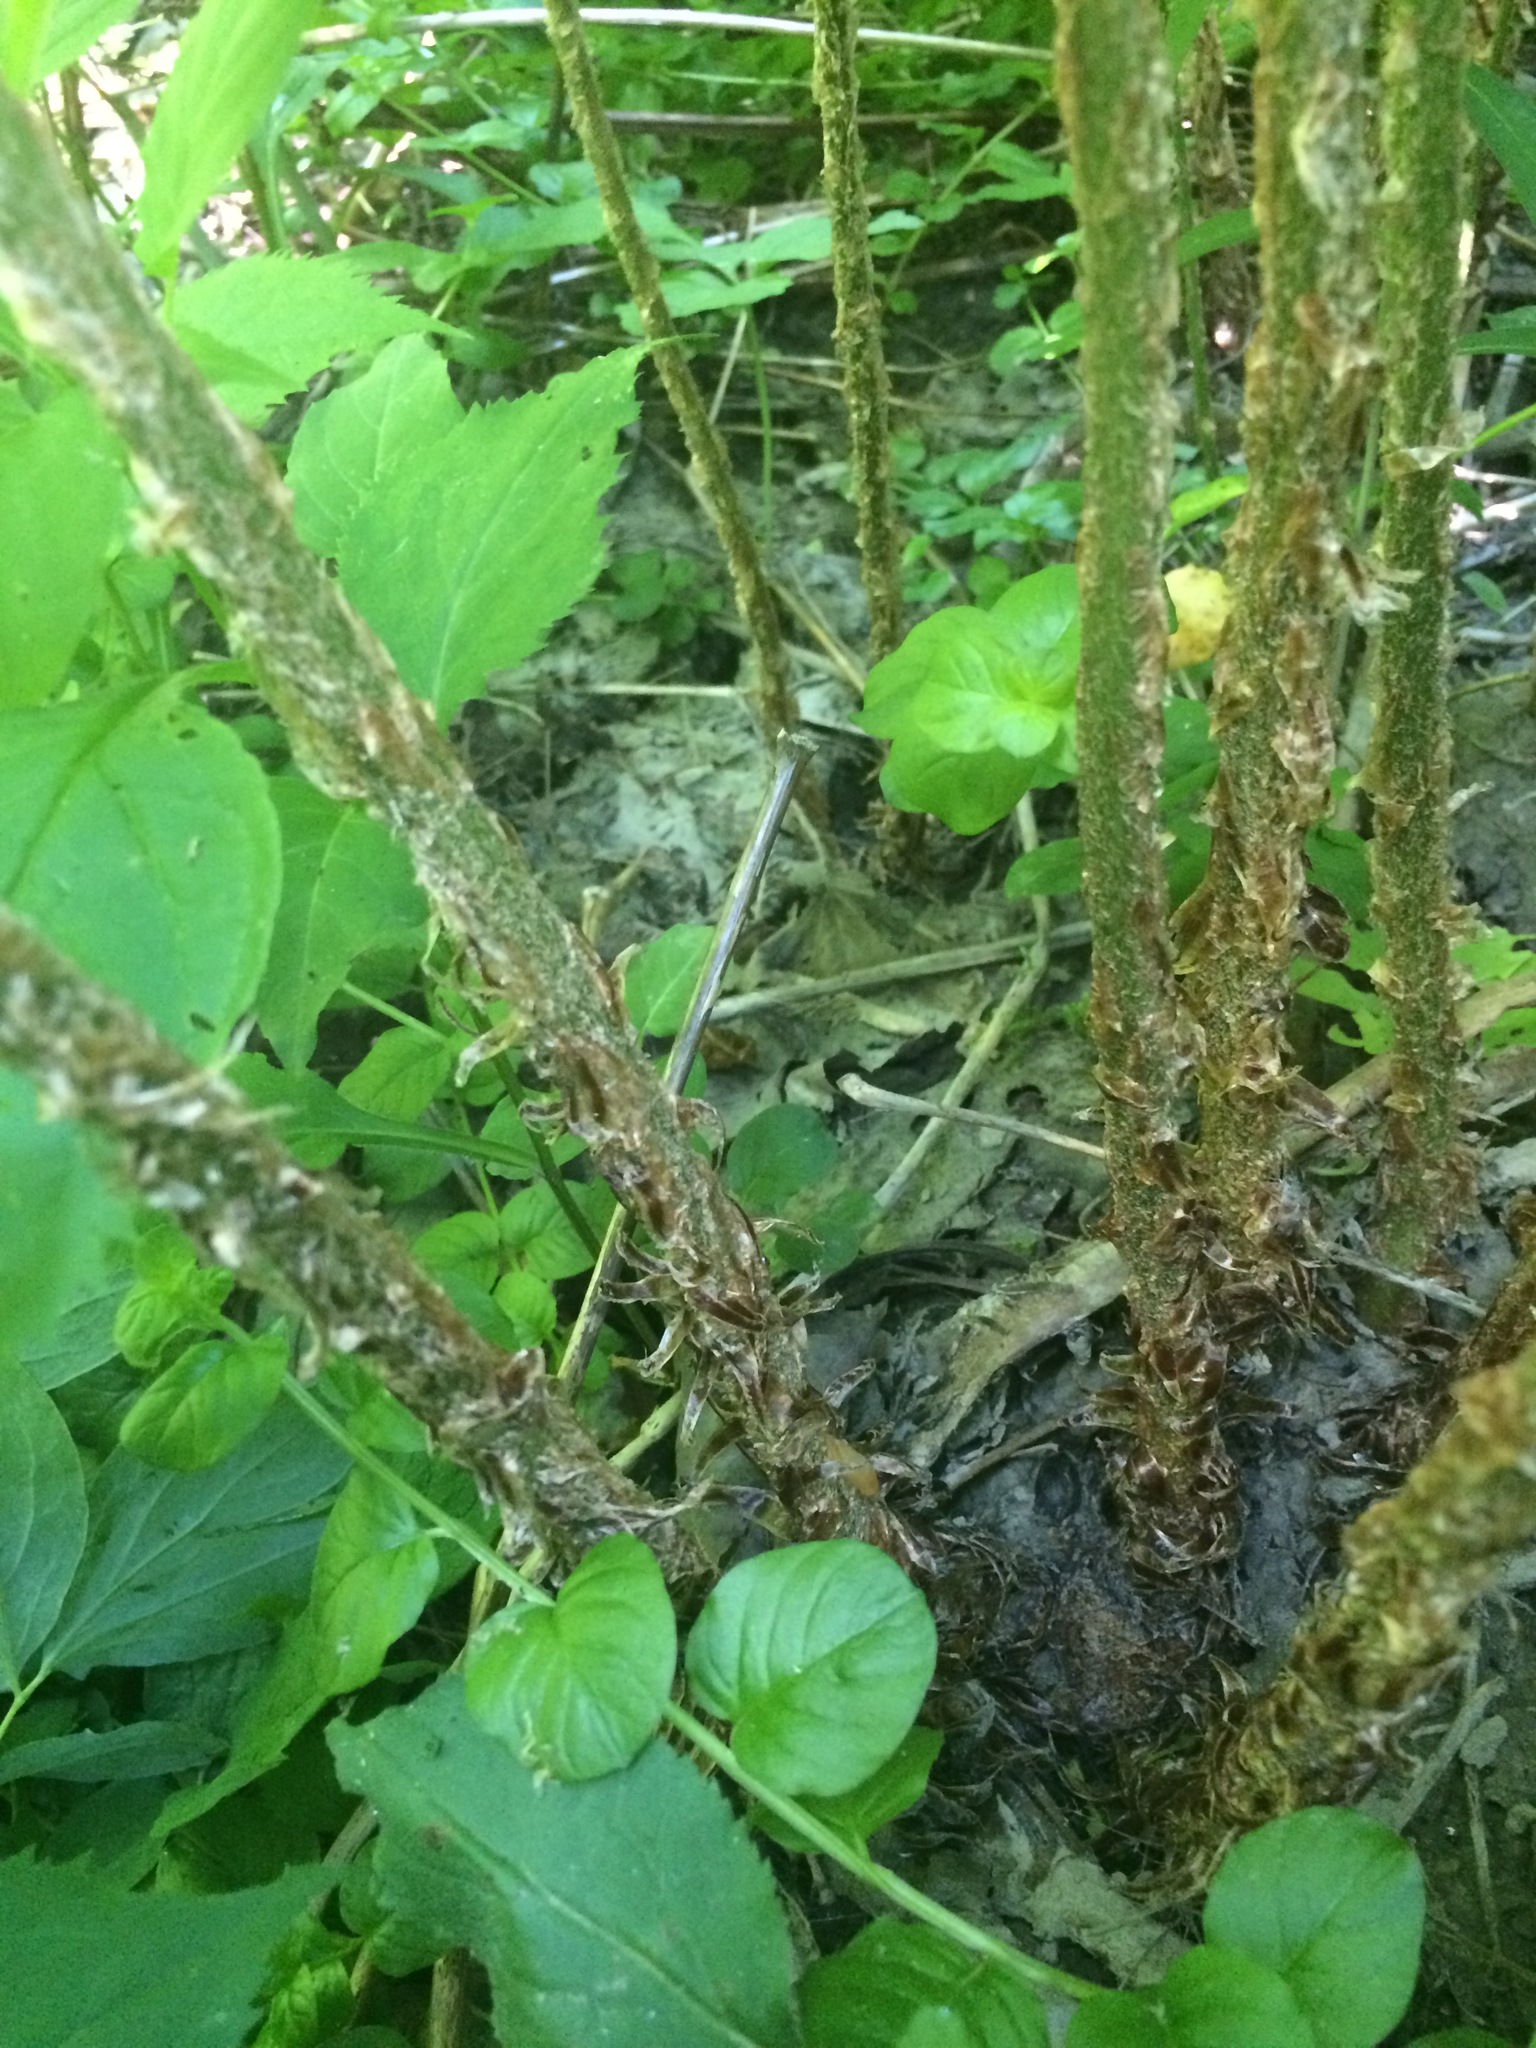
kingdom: Plantae
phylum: Tracheophyta
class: Polypodiopsida
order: Polypodiales
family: Dryopteridaceae
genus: Dryopteris
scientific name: Dryopteris goldieana
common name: Goldie's fern
